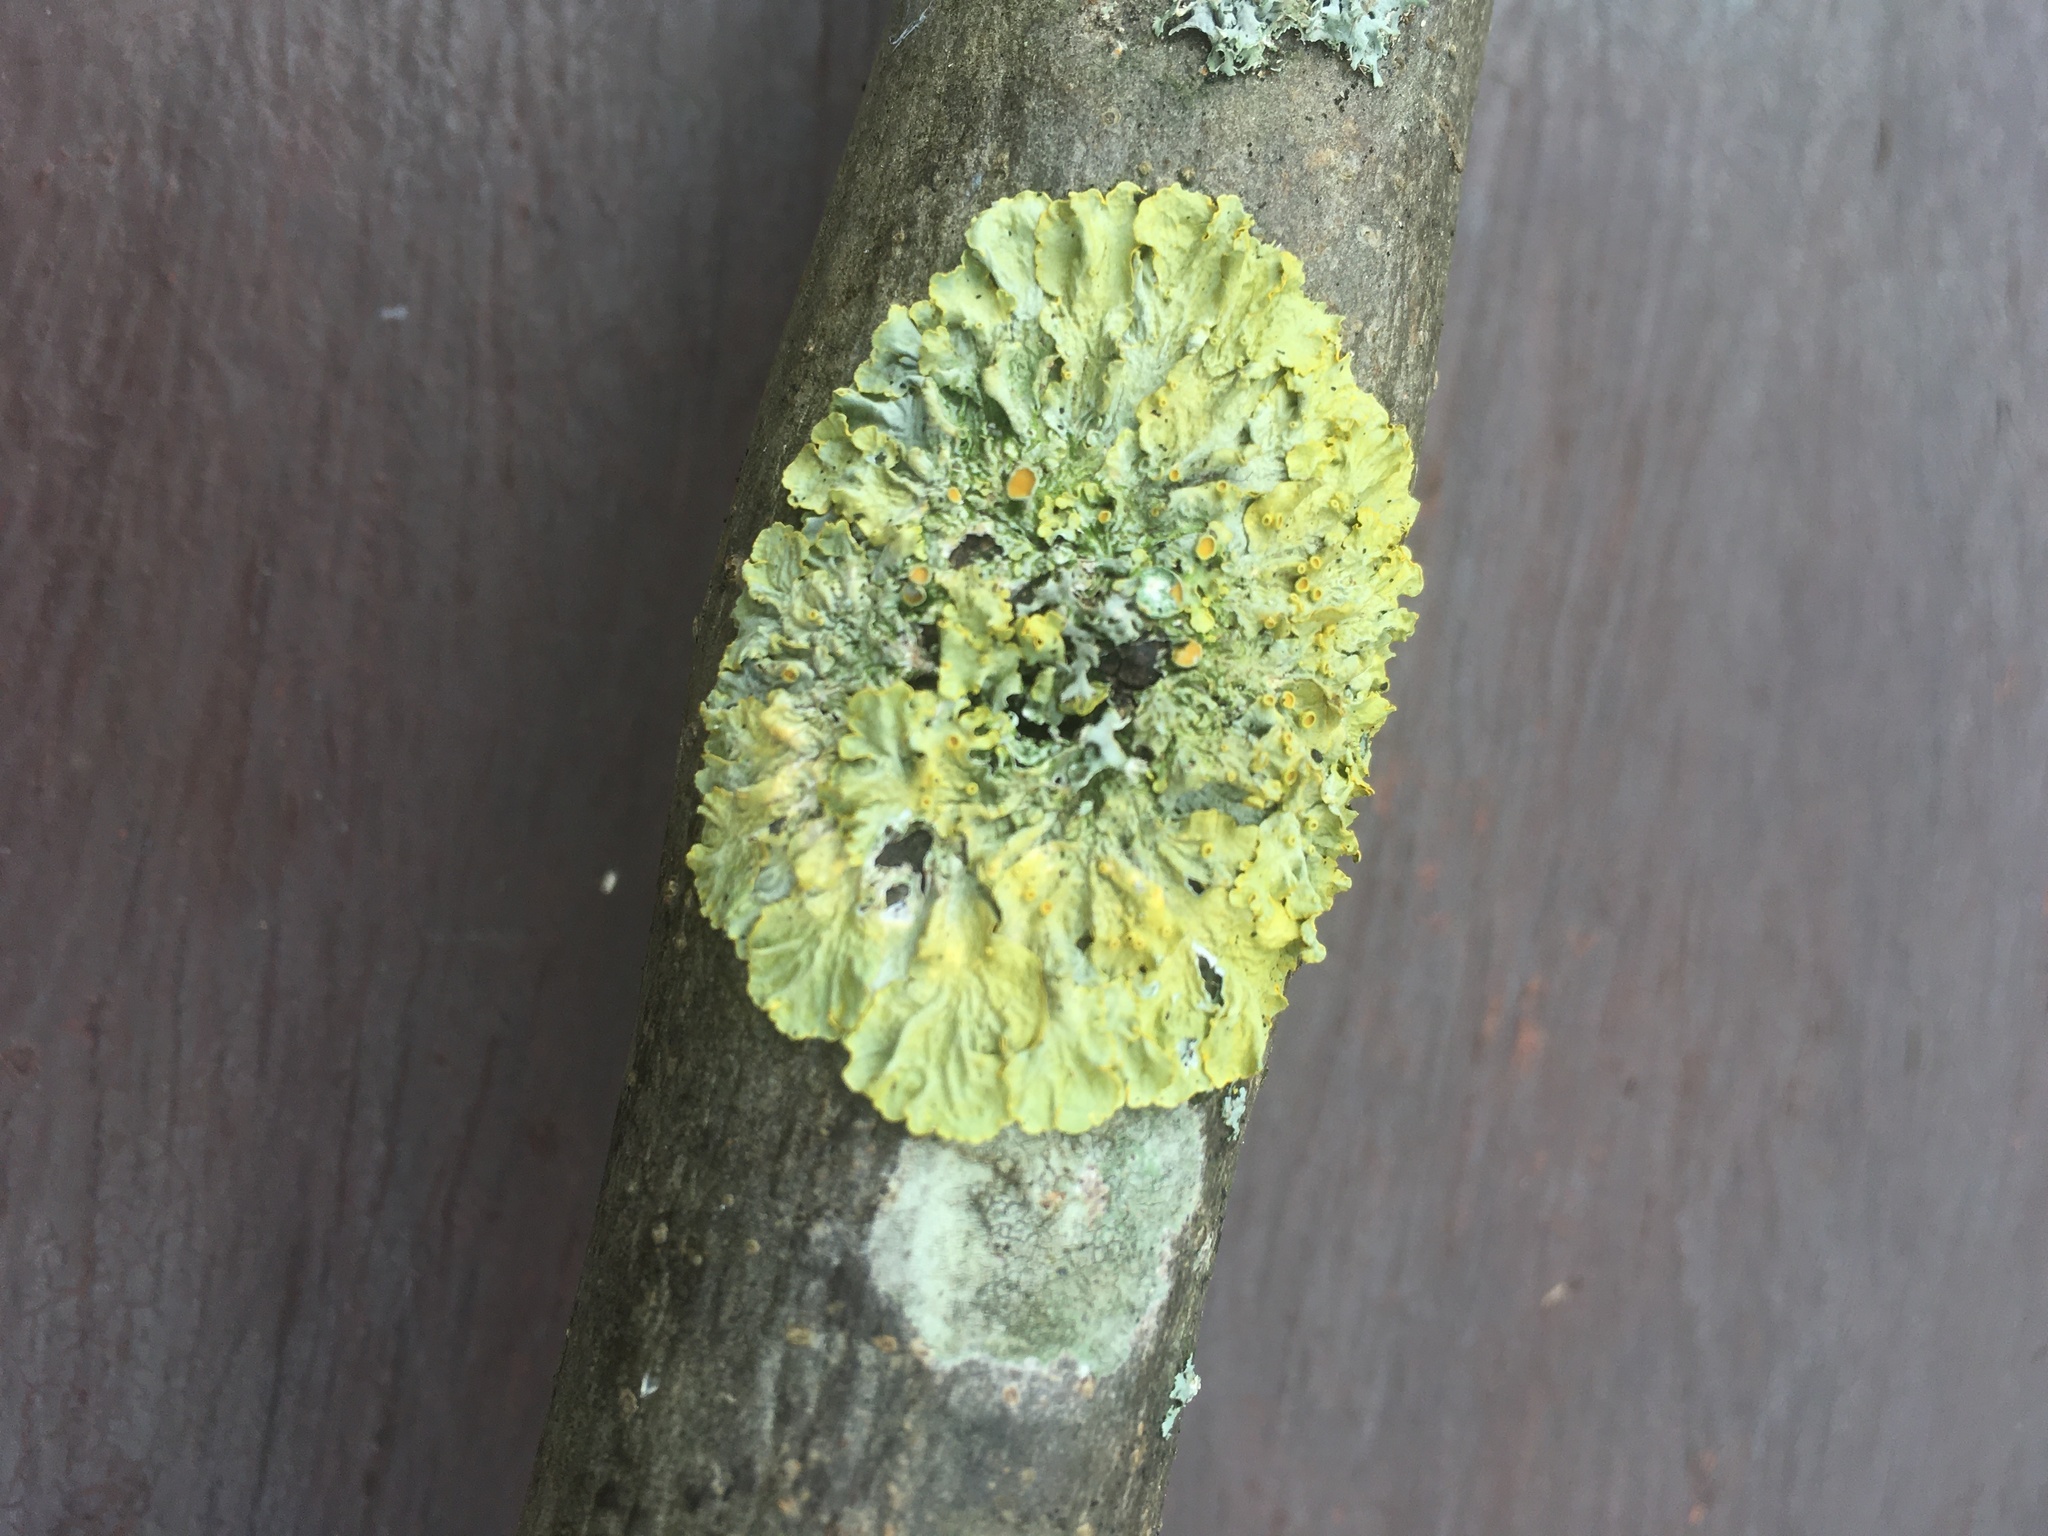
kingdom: Fungi
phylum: Ascomycota
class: Lecanoromycetes
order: Teloschistales
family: Teloschistaceae
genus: Xanthoria
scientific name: Xanthoria parietina
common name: Common orange lichen
